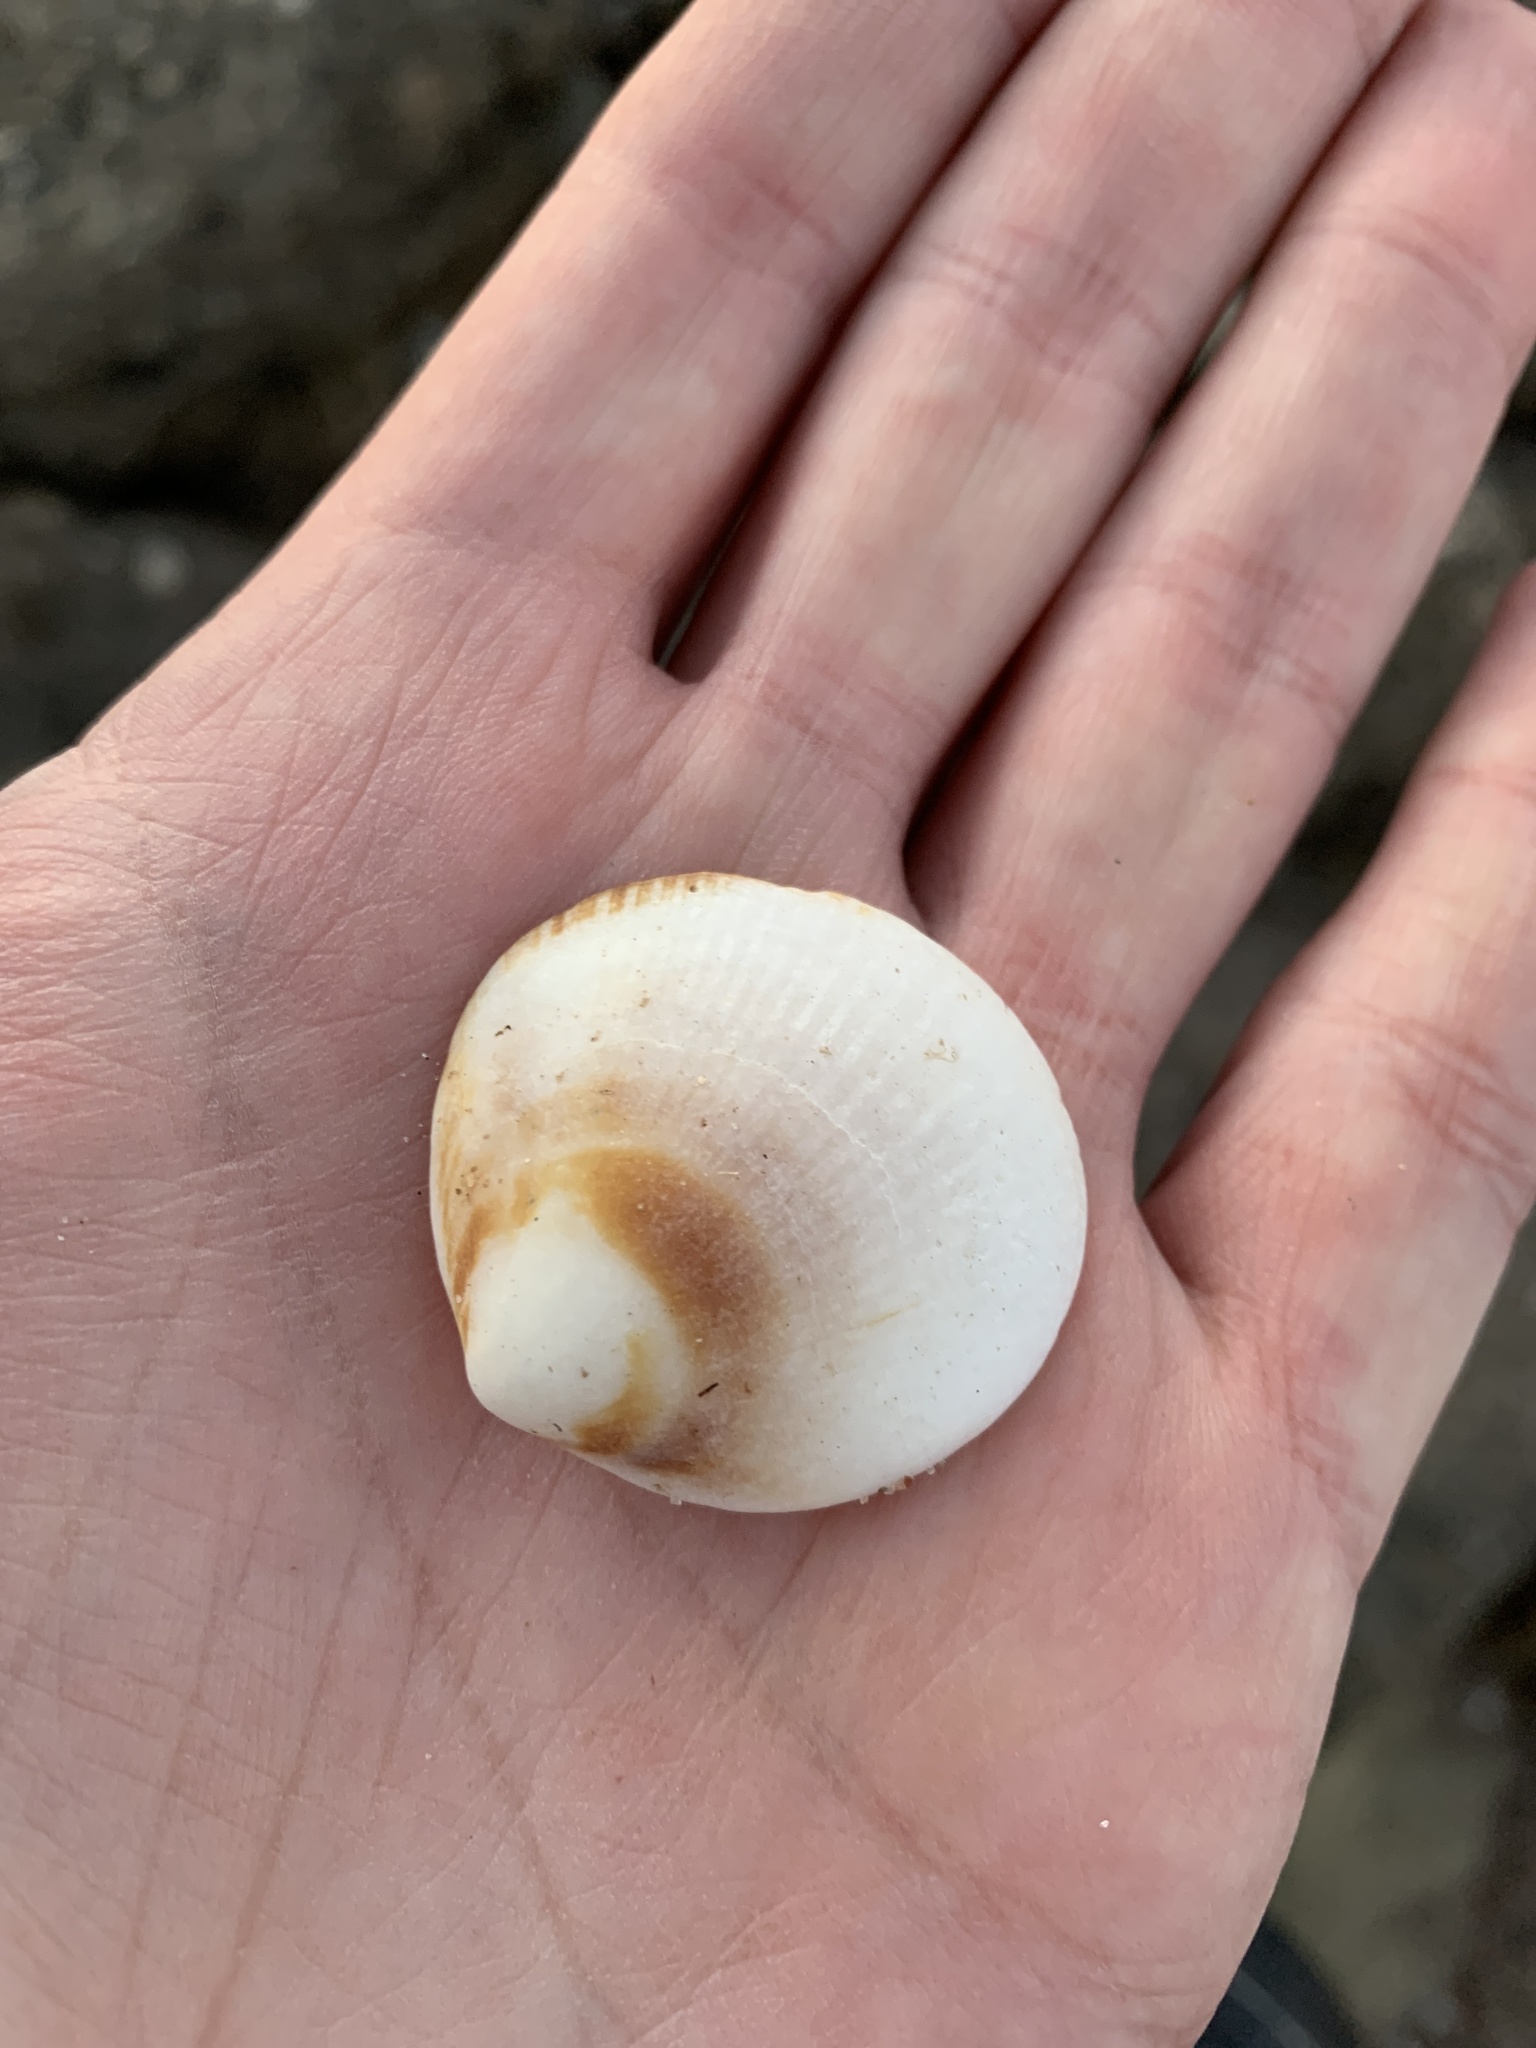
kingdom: Animalia
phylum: Mollusca
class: Bivalvia
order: Arcida
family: Glycymerididae
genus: Glycymeris
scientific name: Glycymeris longior
